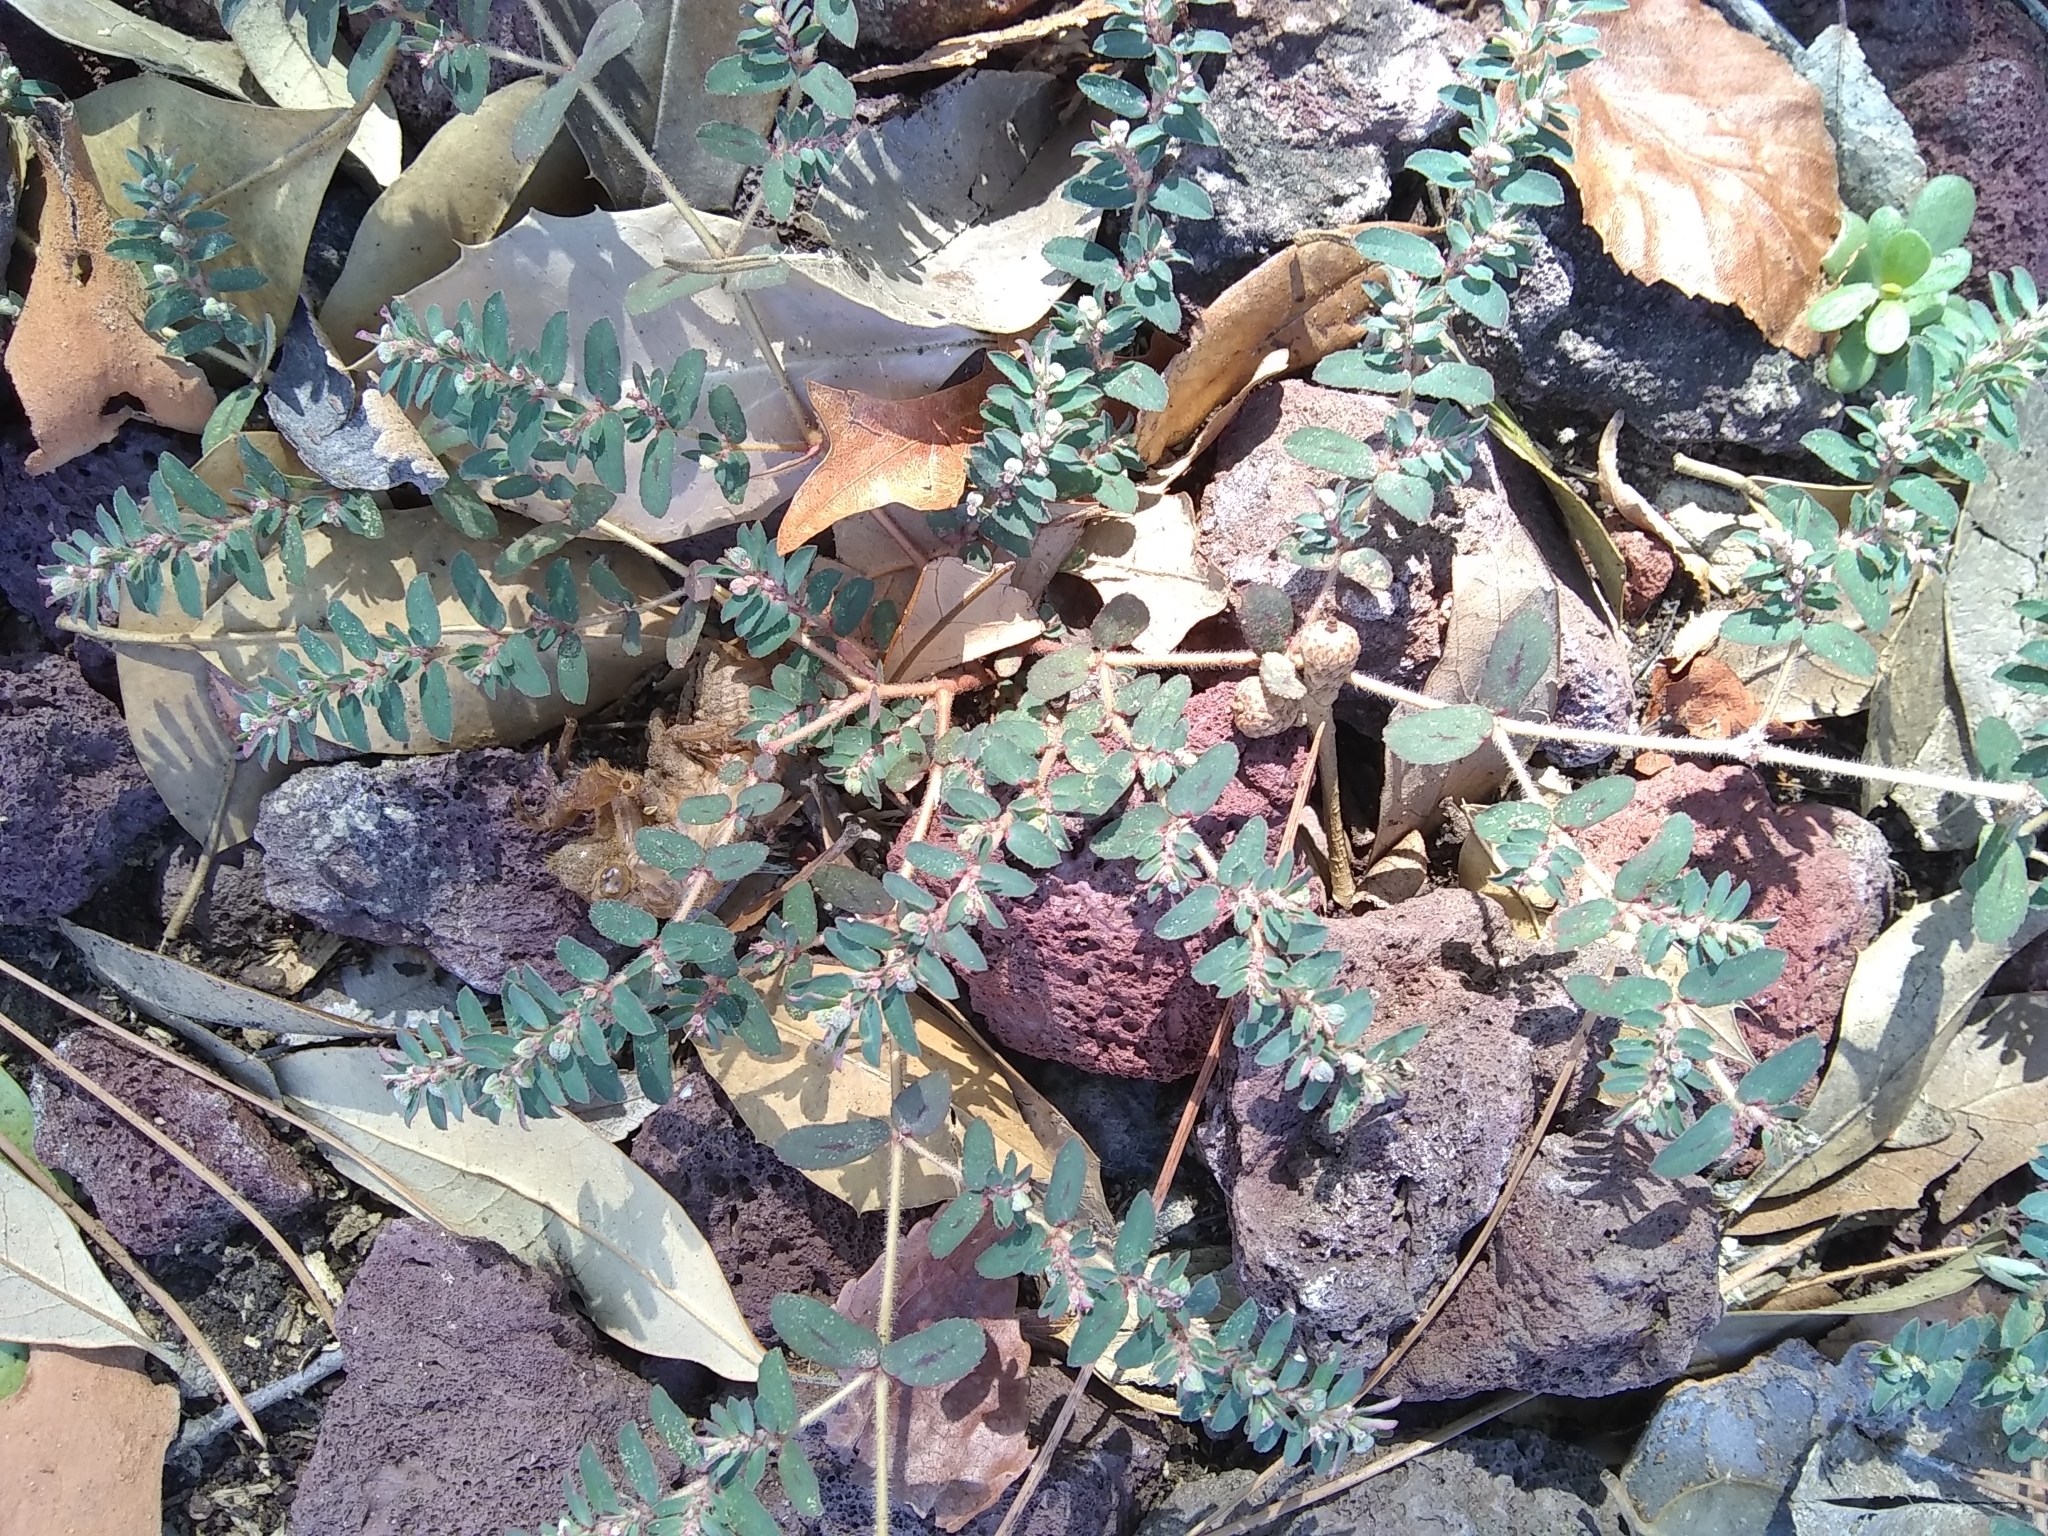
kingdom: Plantae
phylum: Tracheophyta
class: Magnoliopsida
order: Malpighiales
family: Euphorbiaceae
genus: Euphorbia
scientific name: Euphorbia maculata
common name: Spotted spurge
